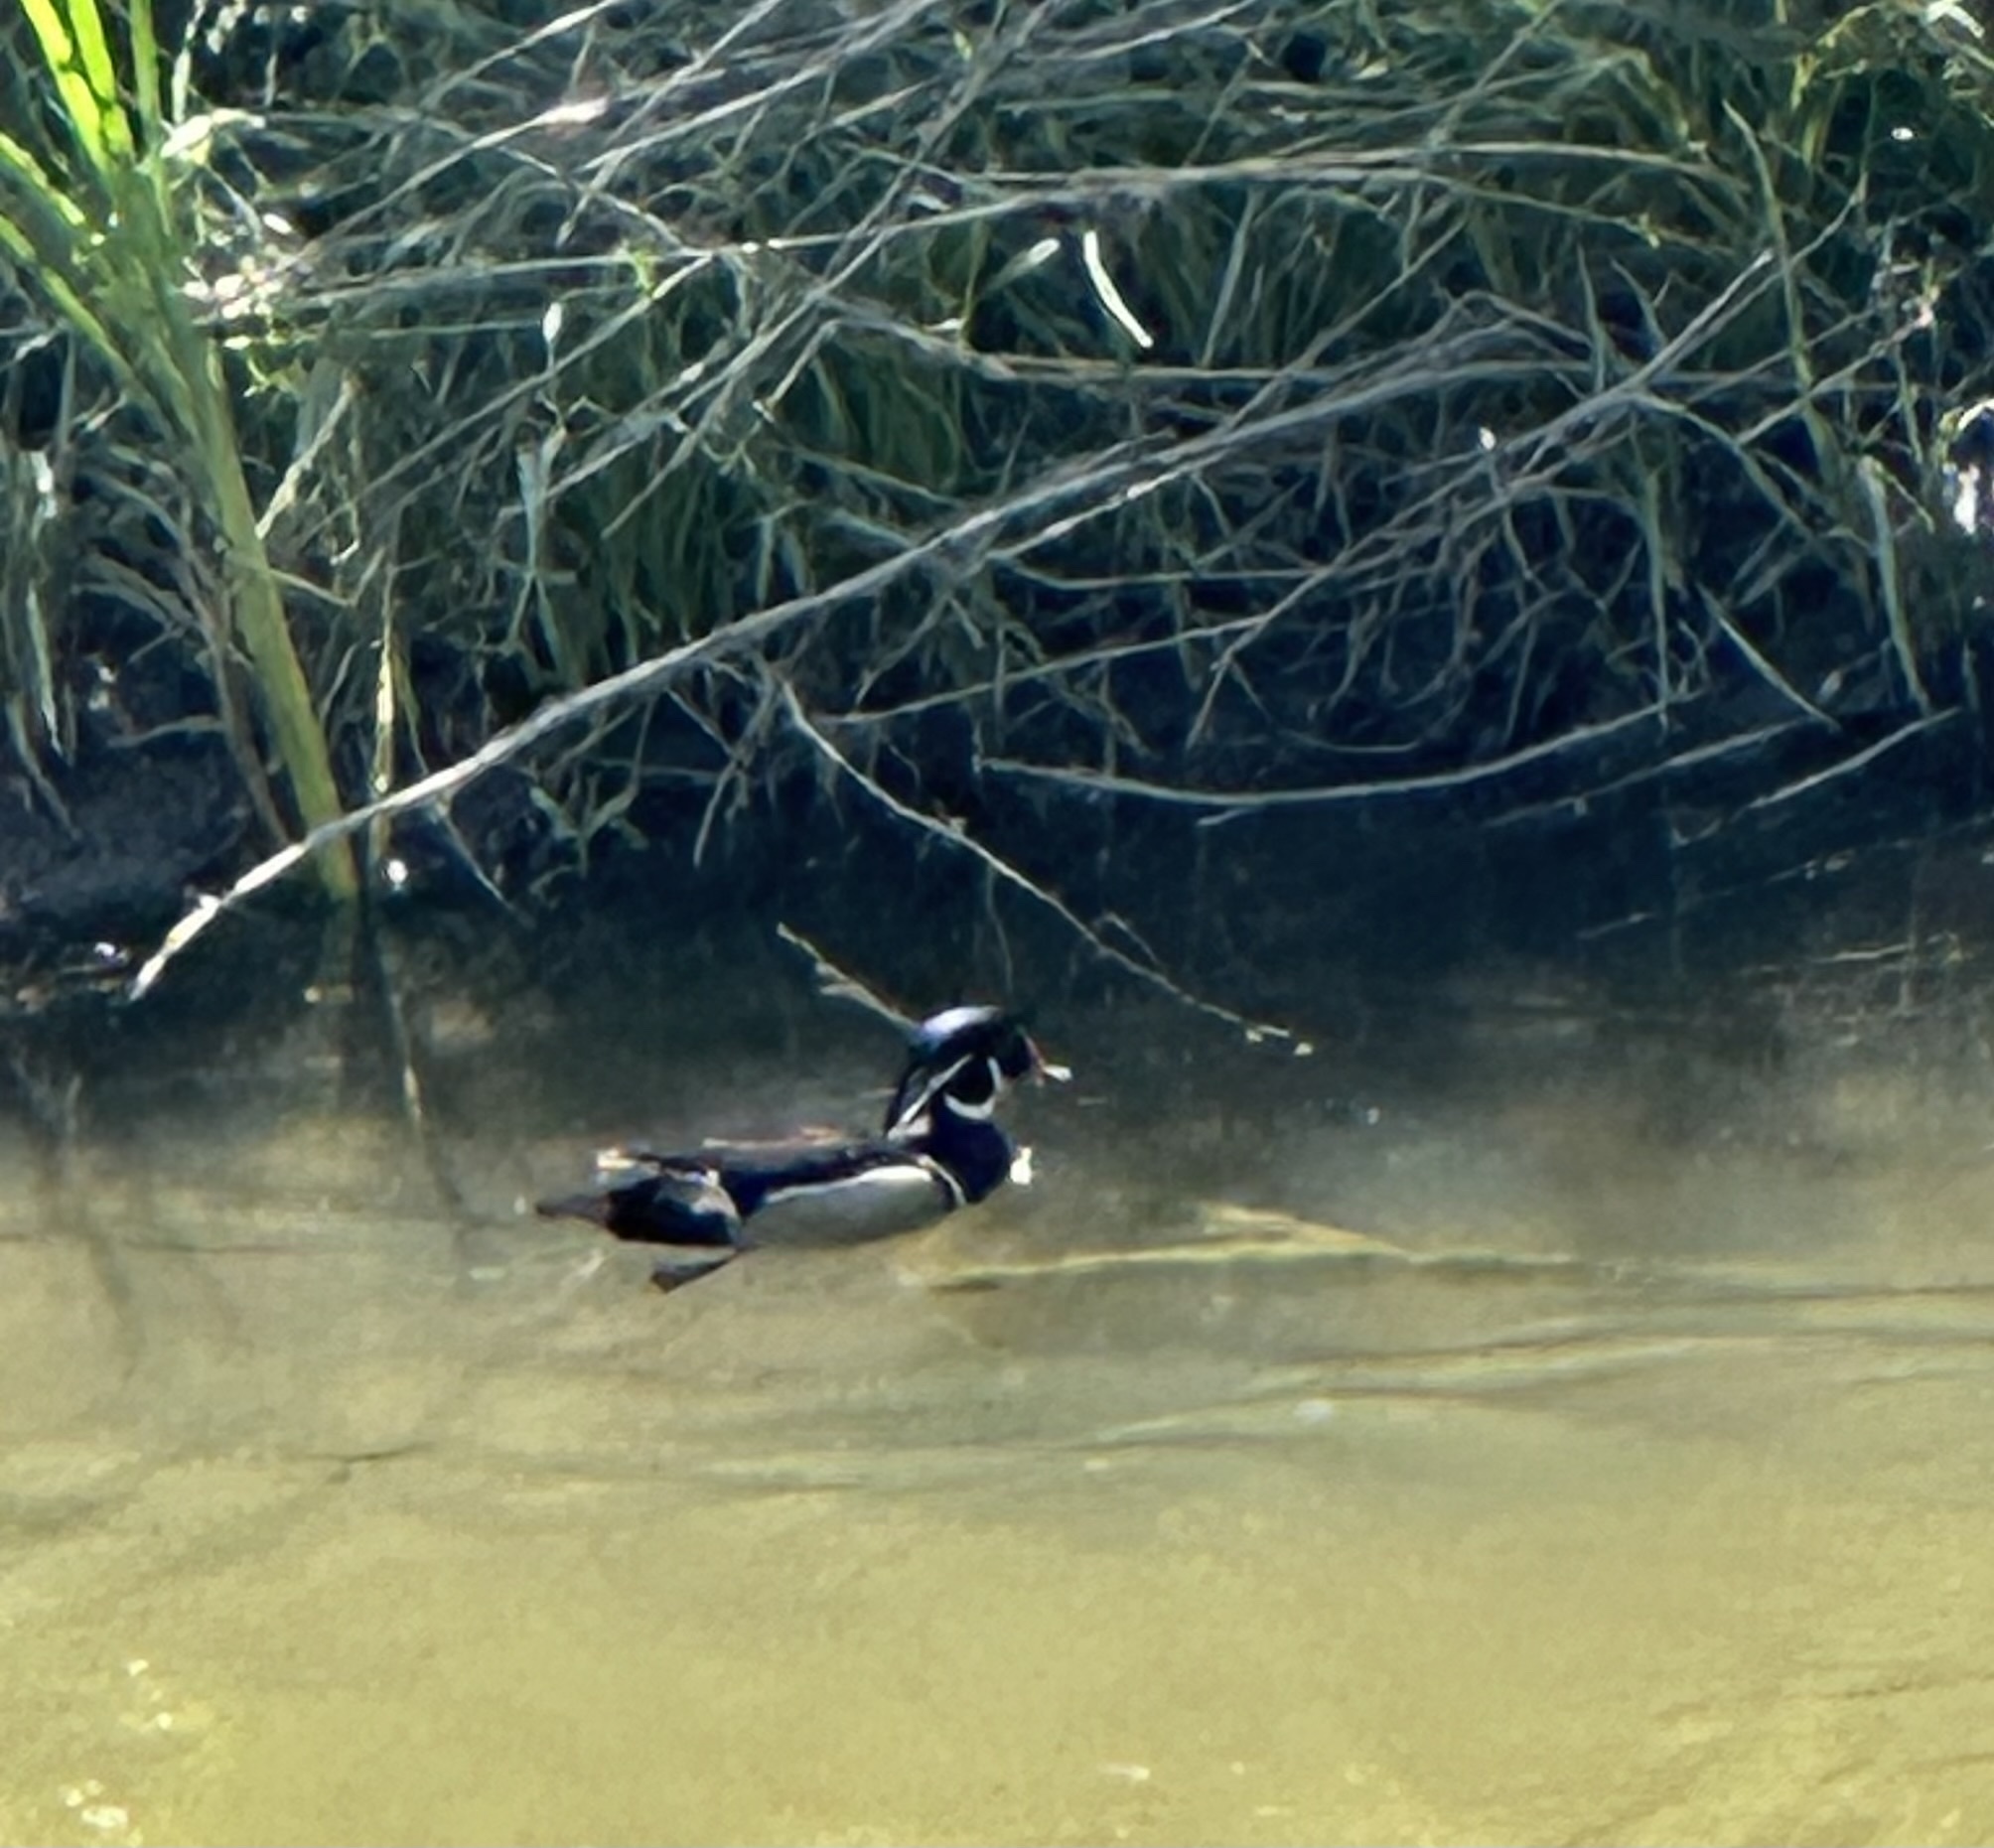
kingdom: Animalia
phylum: Chordata
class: Aves
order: Anseriformes
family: Anatidae
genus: Aix
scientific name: Aix sponsa
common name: Wood duck
